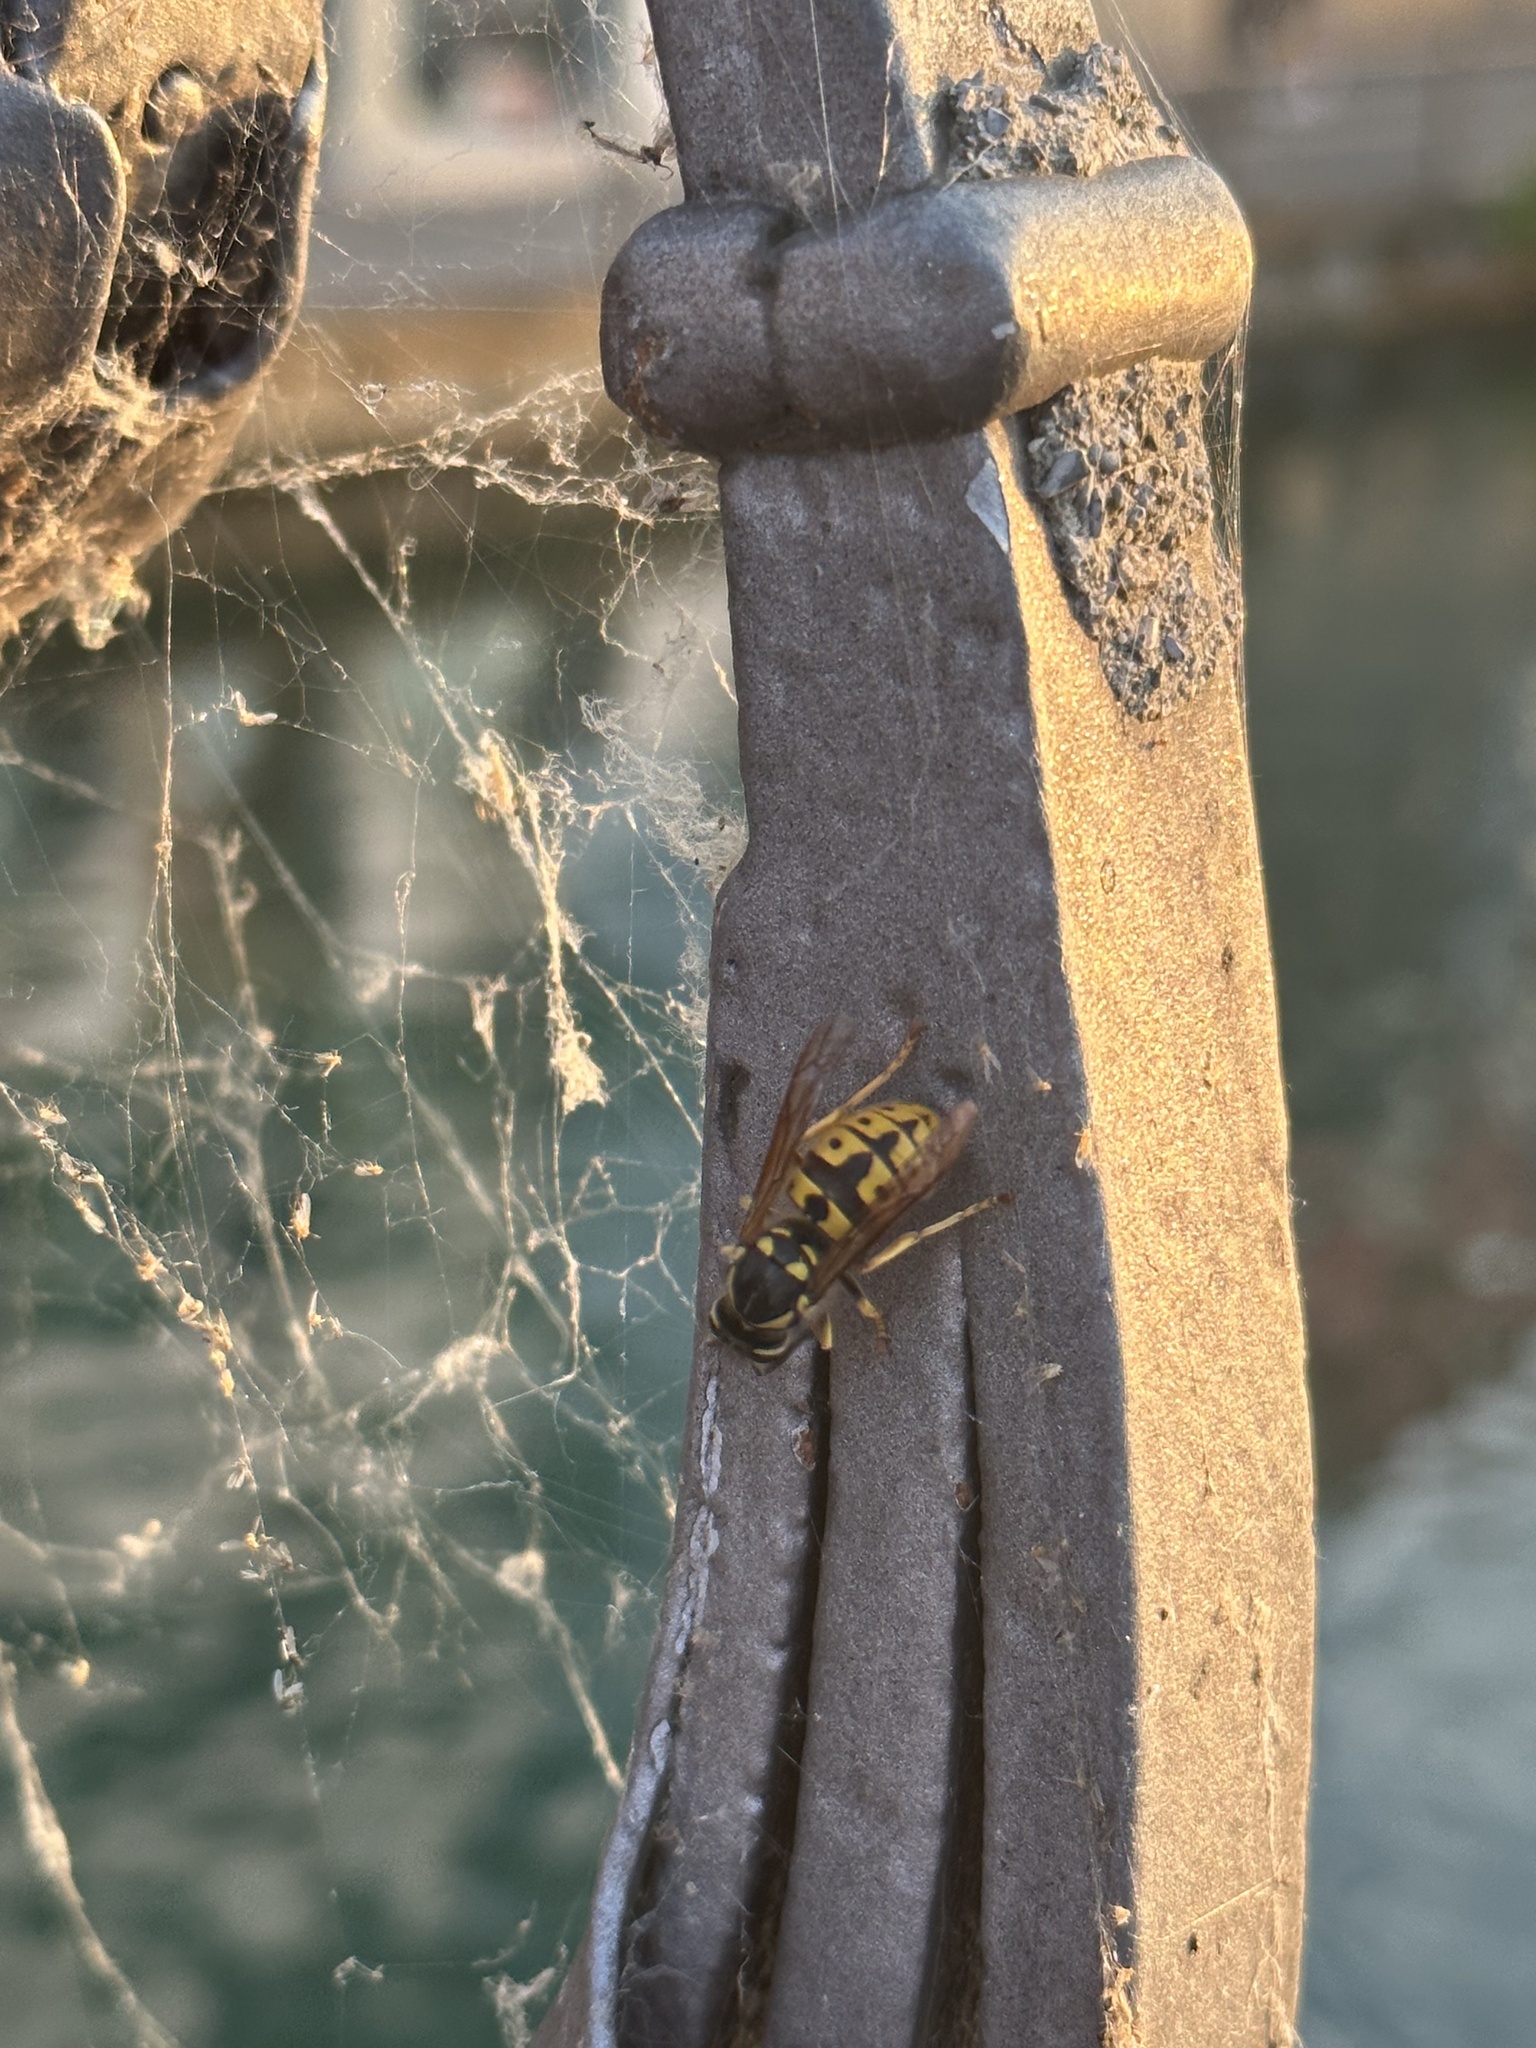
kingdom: Animalia
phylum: Arthropoda
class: Insecta
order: Hymenoptera
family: Vespidae
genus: Vespula
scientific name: Vespula germanica
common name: German wasp
